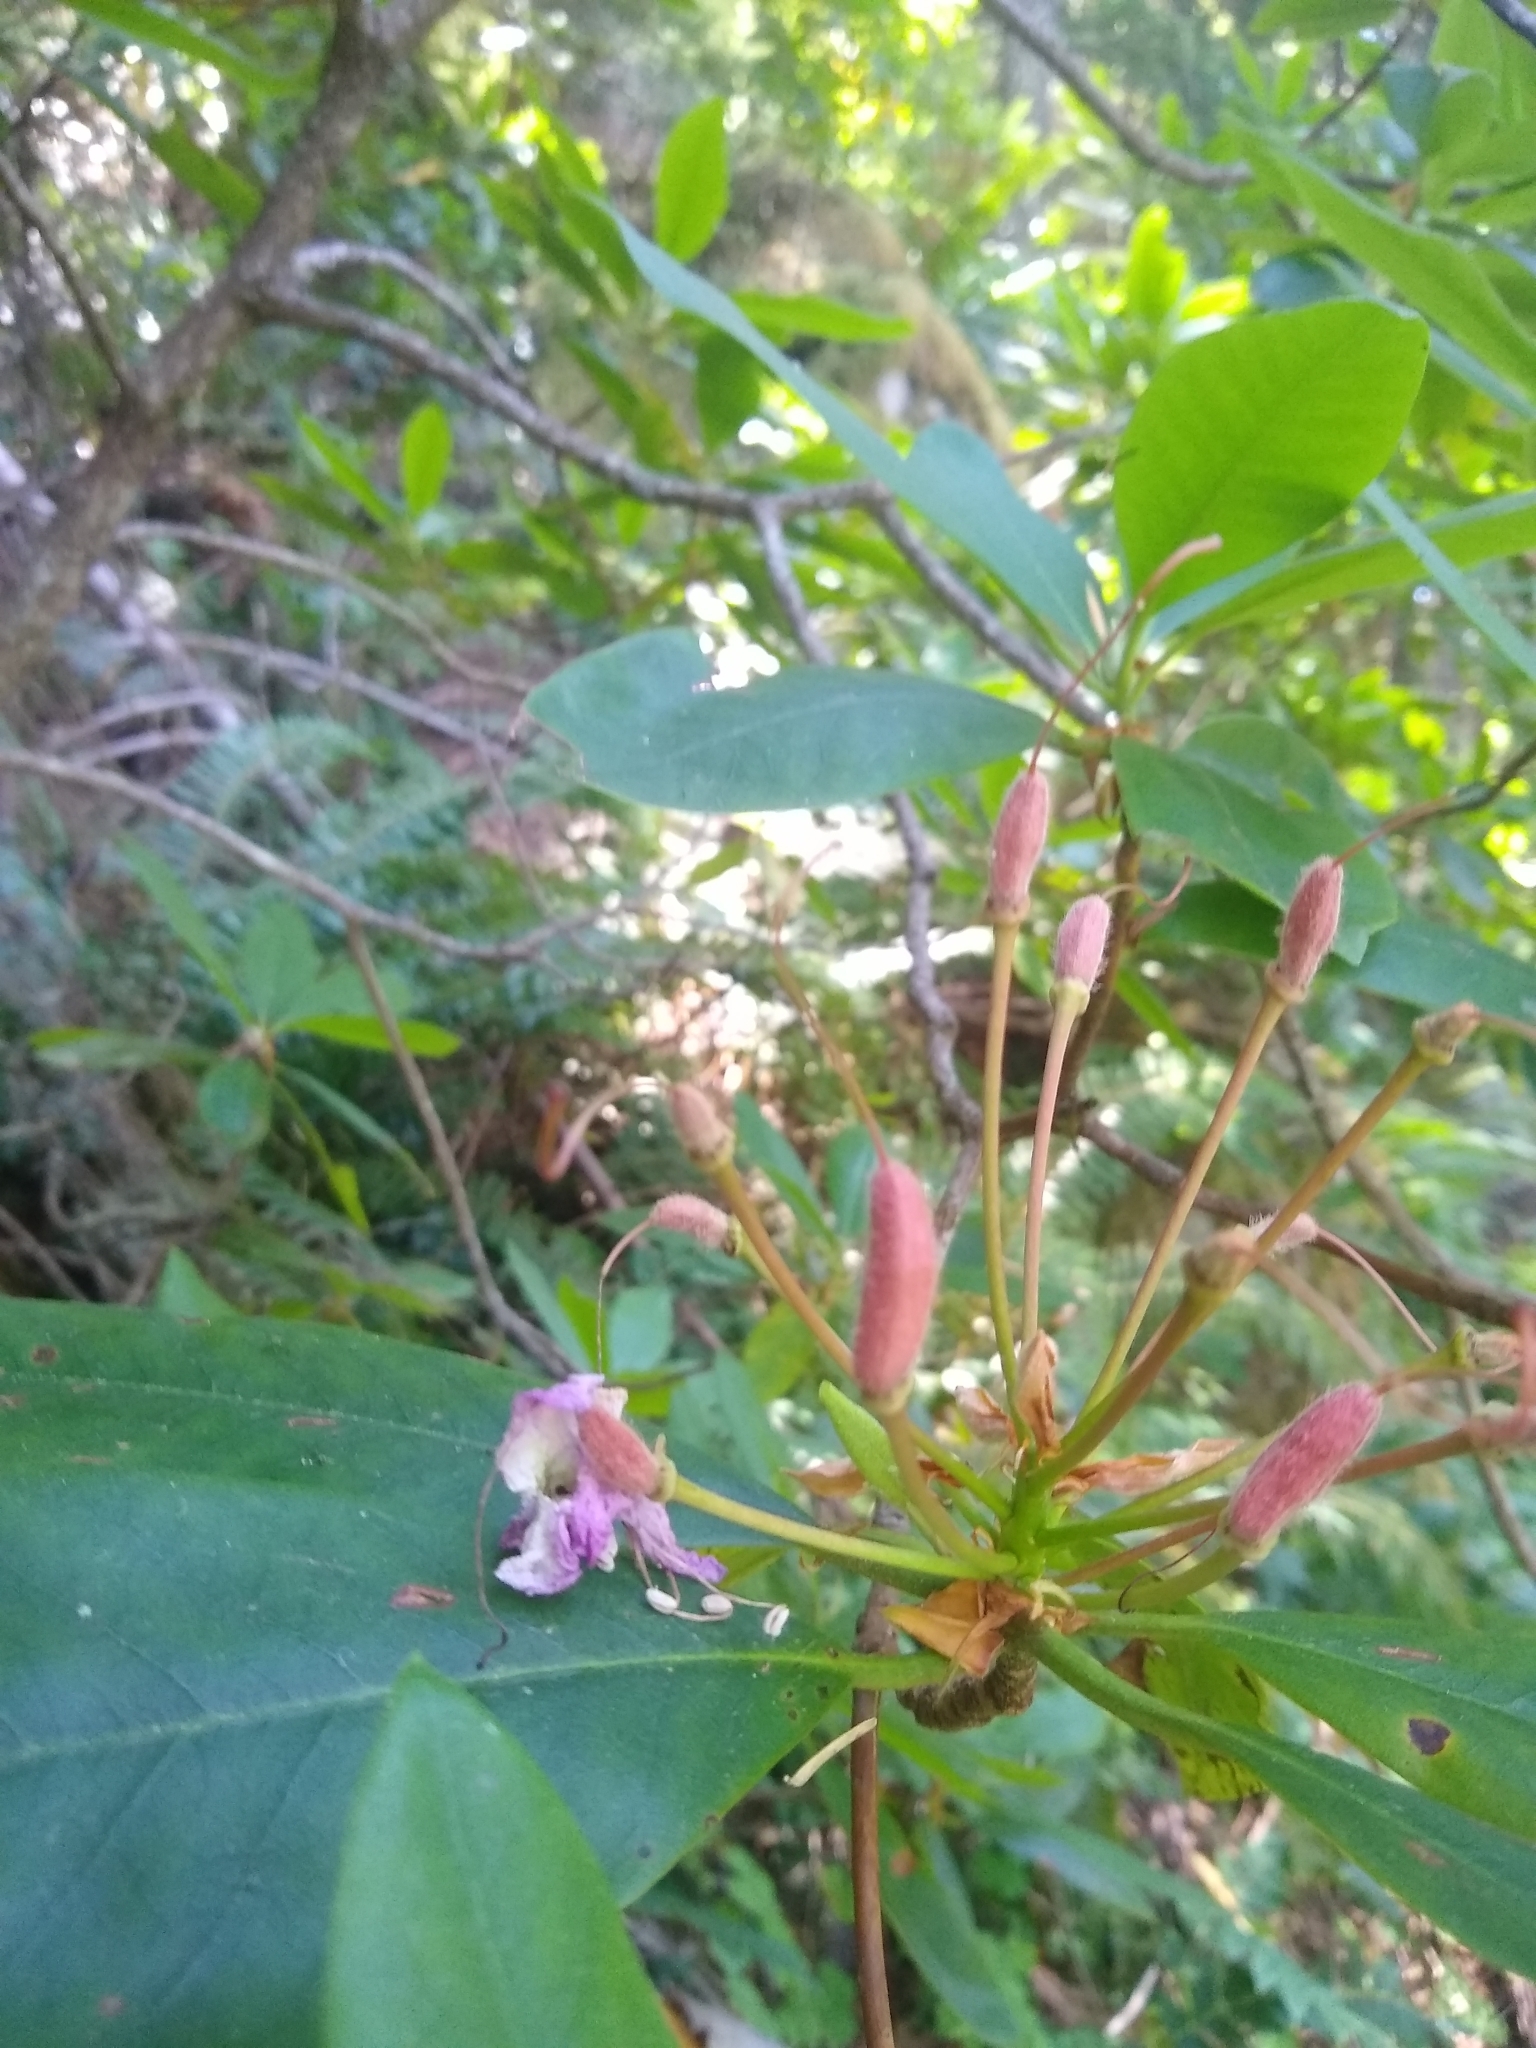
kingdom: Plantae
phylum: Tracheophyta
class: Magnoliopsida
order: Ericales
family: Ericaceae
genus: Rhododendron
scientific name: Rhododendron macrophyllum
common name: California rose bay
